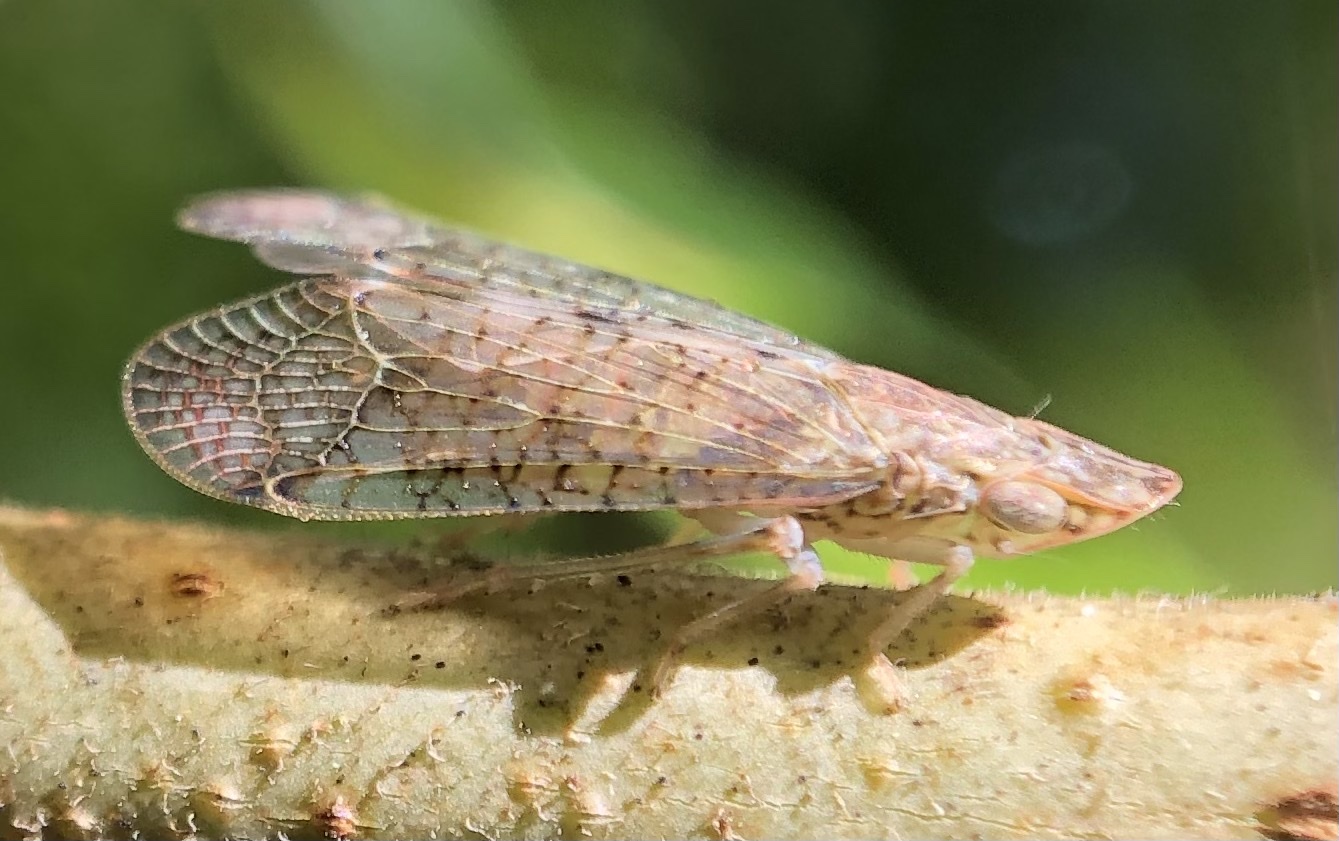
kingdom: Animalia
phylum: Arthropoda
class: Insecta
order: Hemiptera
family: Tropiduchidae
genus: Pelitropis
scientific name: Pelitropis rotulata
